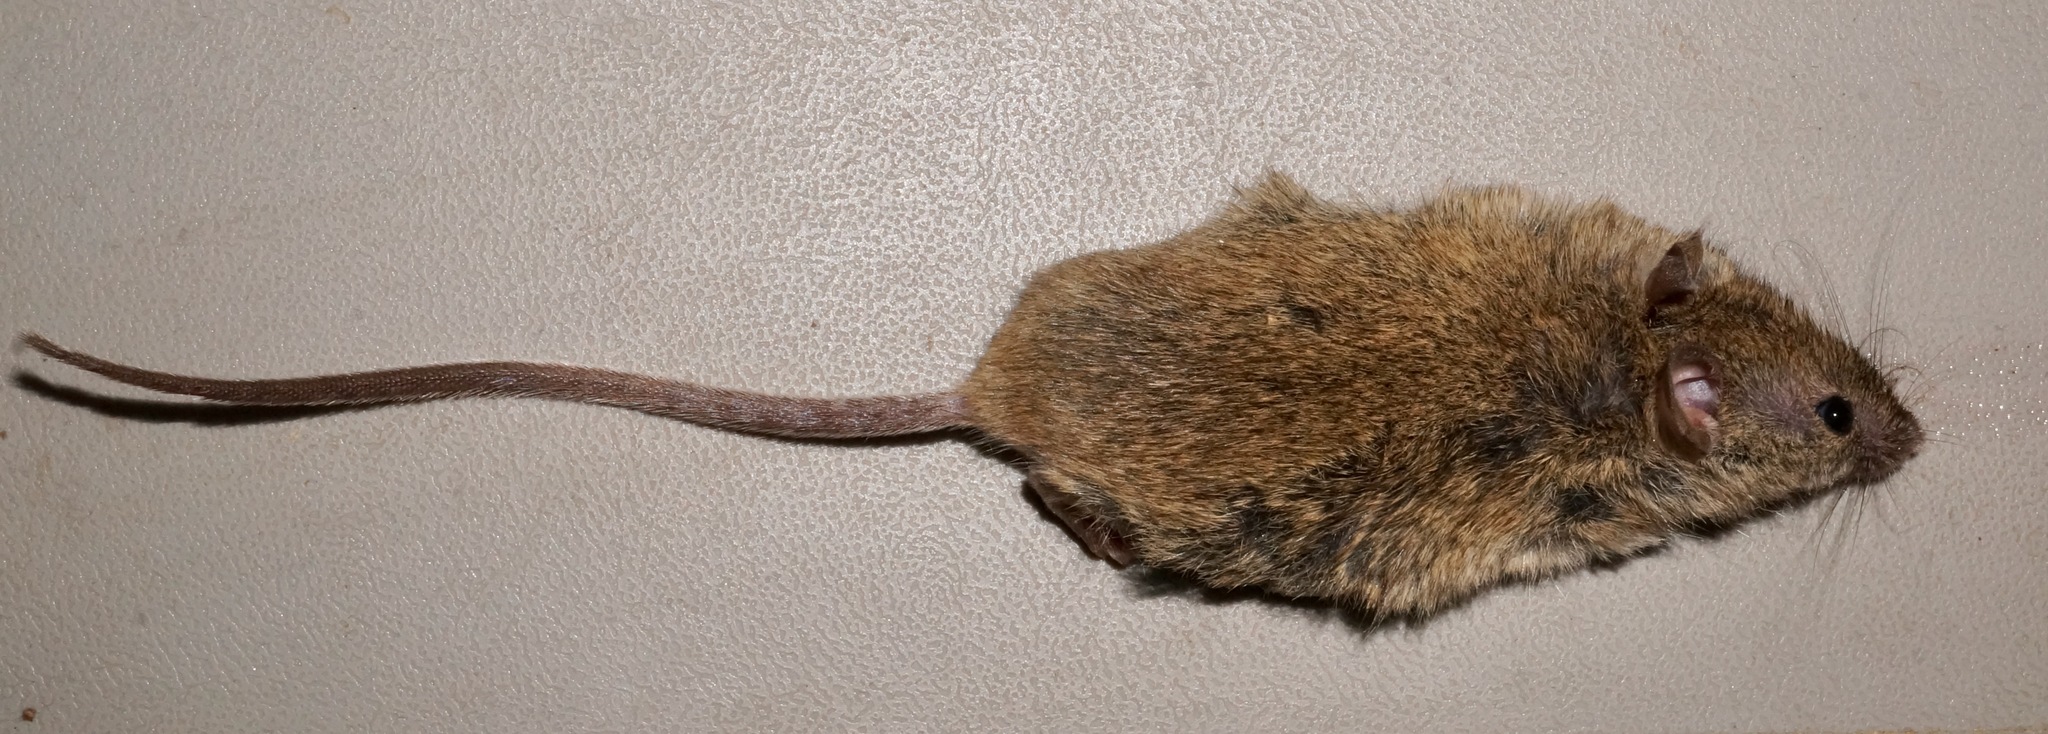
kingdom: Animalia
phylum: Chordata
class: Mammalia
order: Rodentia
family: Muridae
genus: Mus
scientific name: Mus musculus
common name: House mouse
